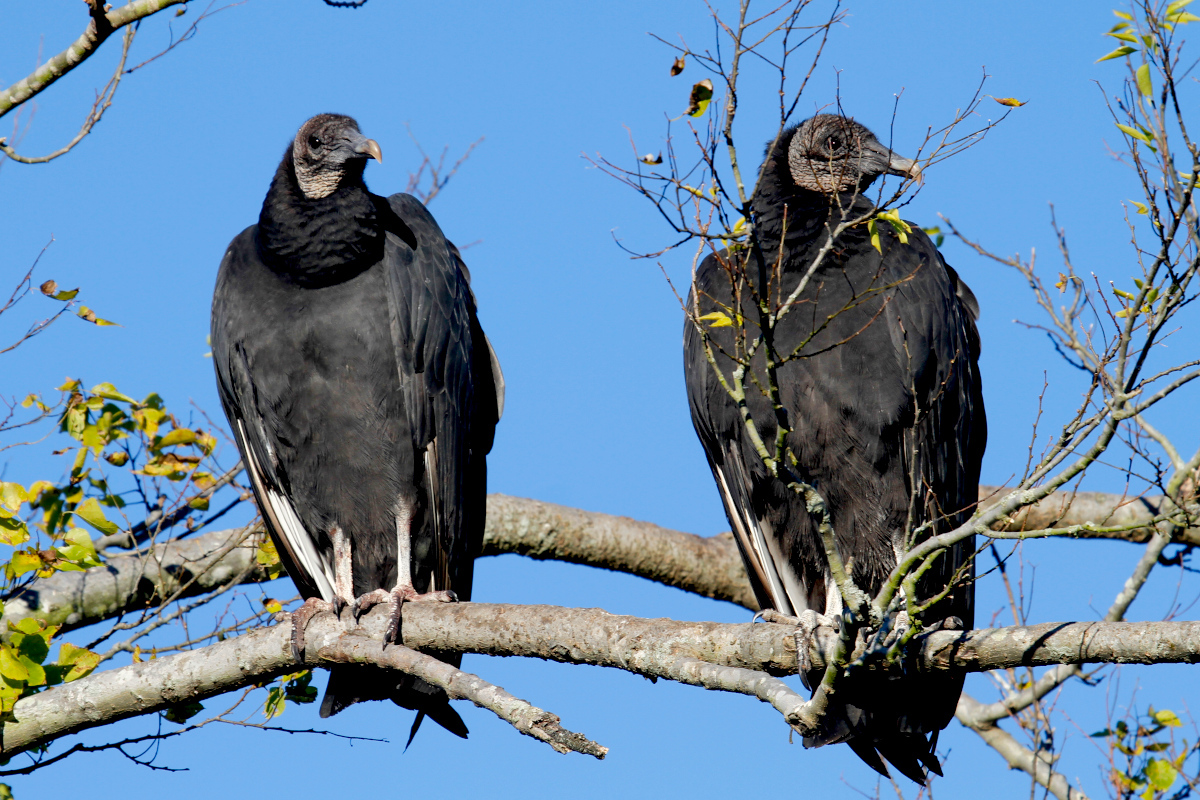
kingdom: Animalia
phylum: Chordata
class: Aves
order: Accipitriformes
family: Cathartidae
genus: Coragyps
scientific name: Coragyps atratus
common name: Black vulture
